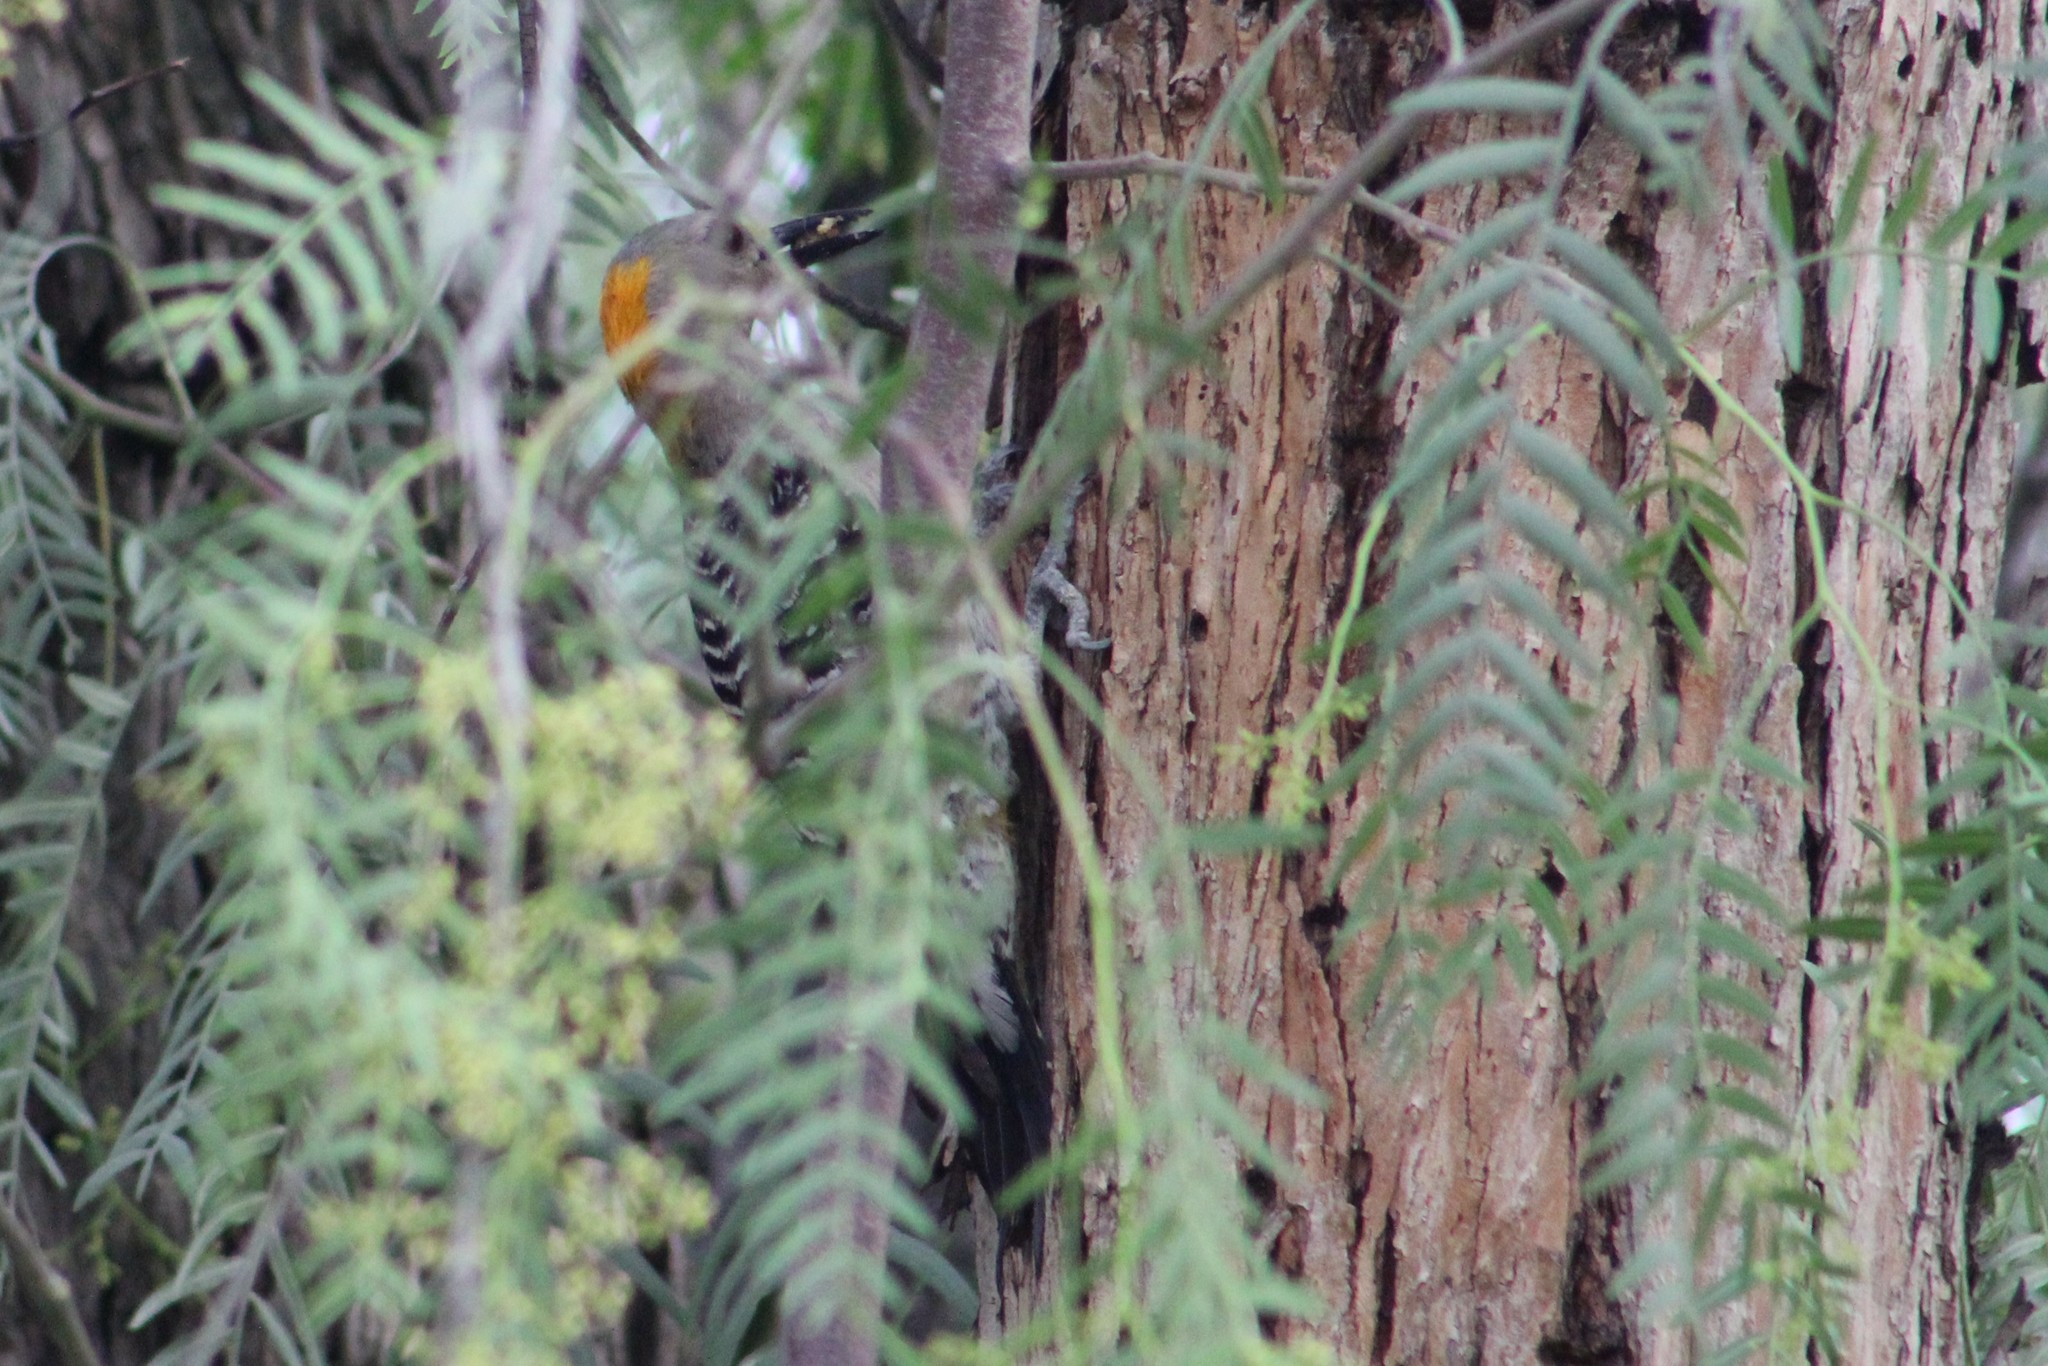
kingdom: Animalia
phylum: Chordata
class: Aves
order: Piciformes
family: Picidae
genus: Melanerpes
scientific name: Melanerpes aurifrons
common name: Golden-fronted woodpecker
